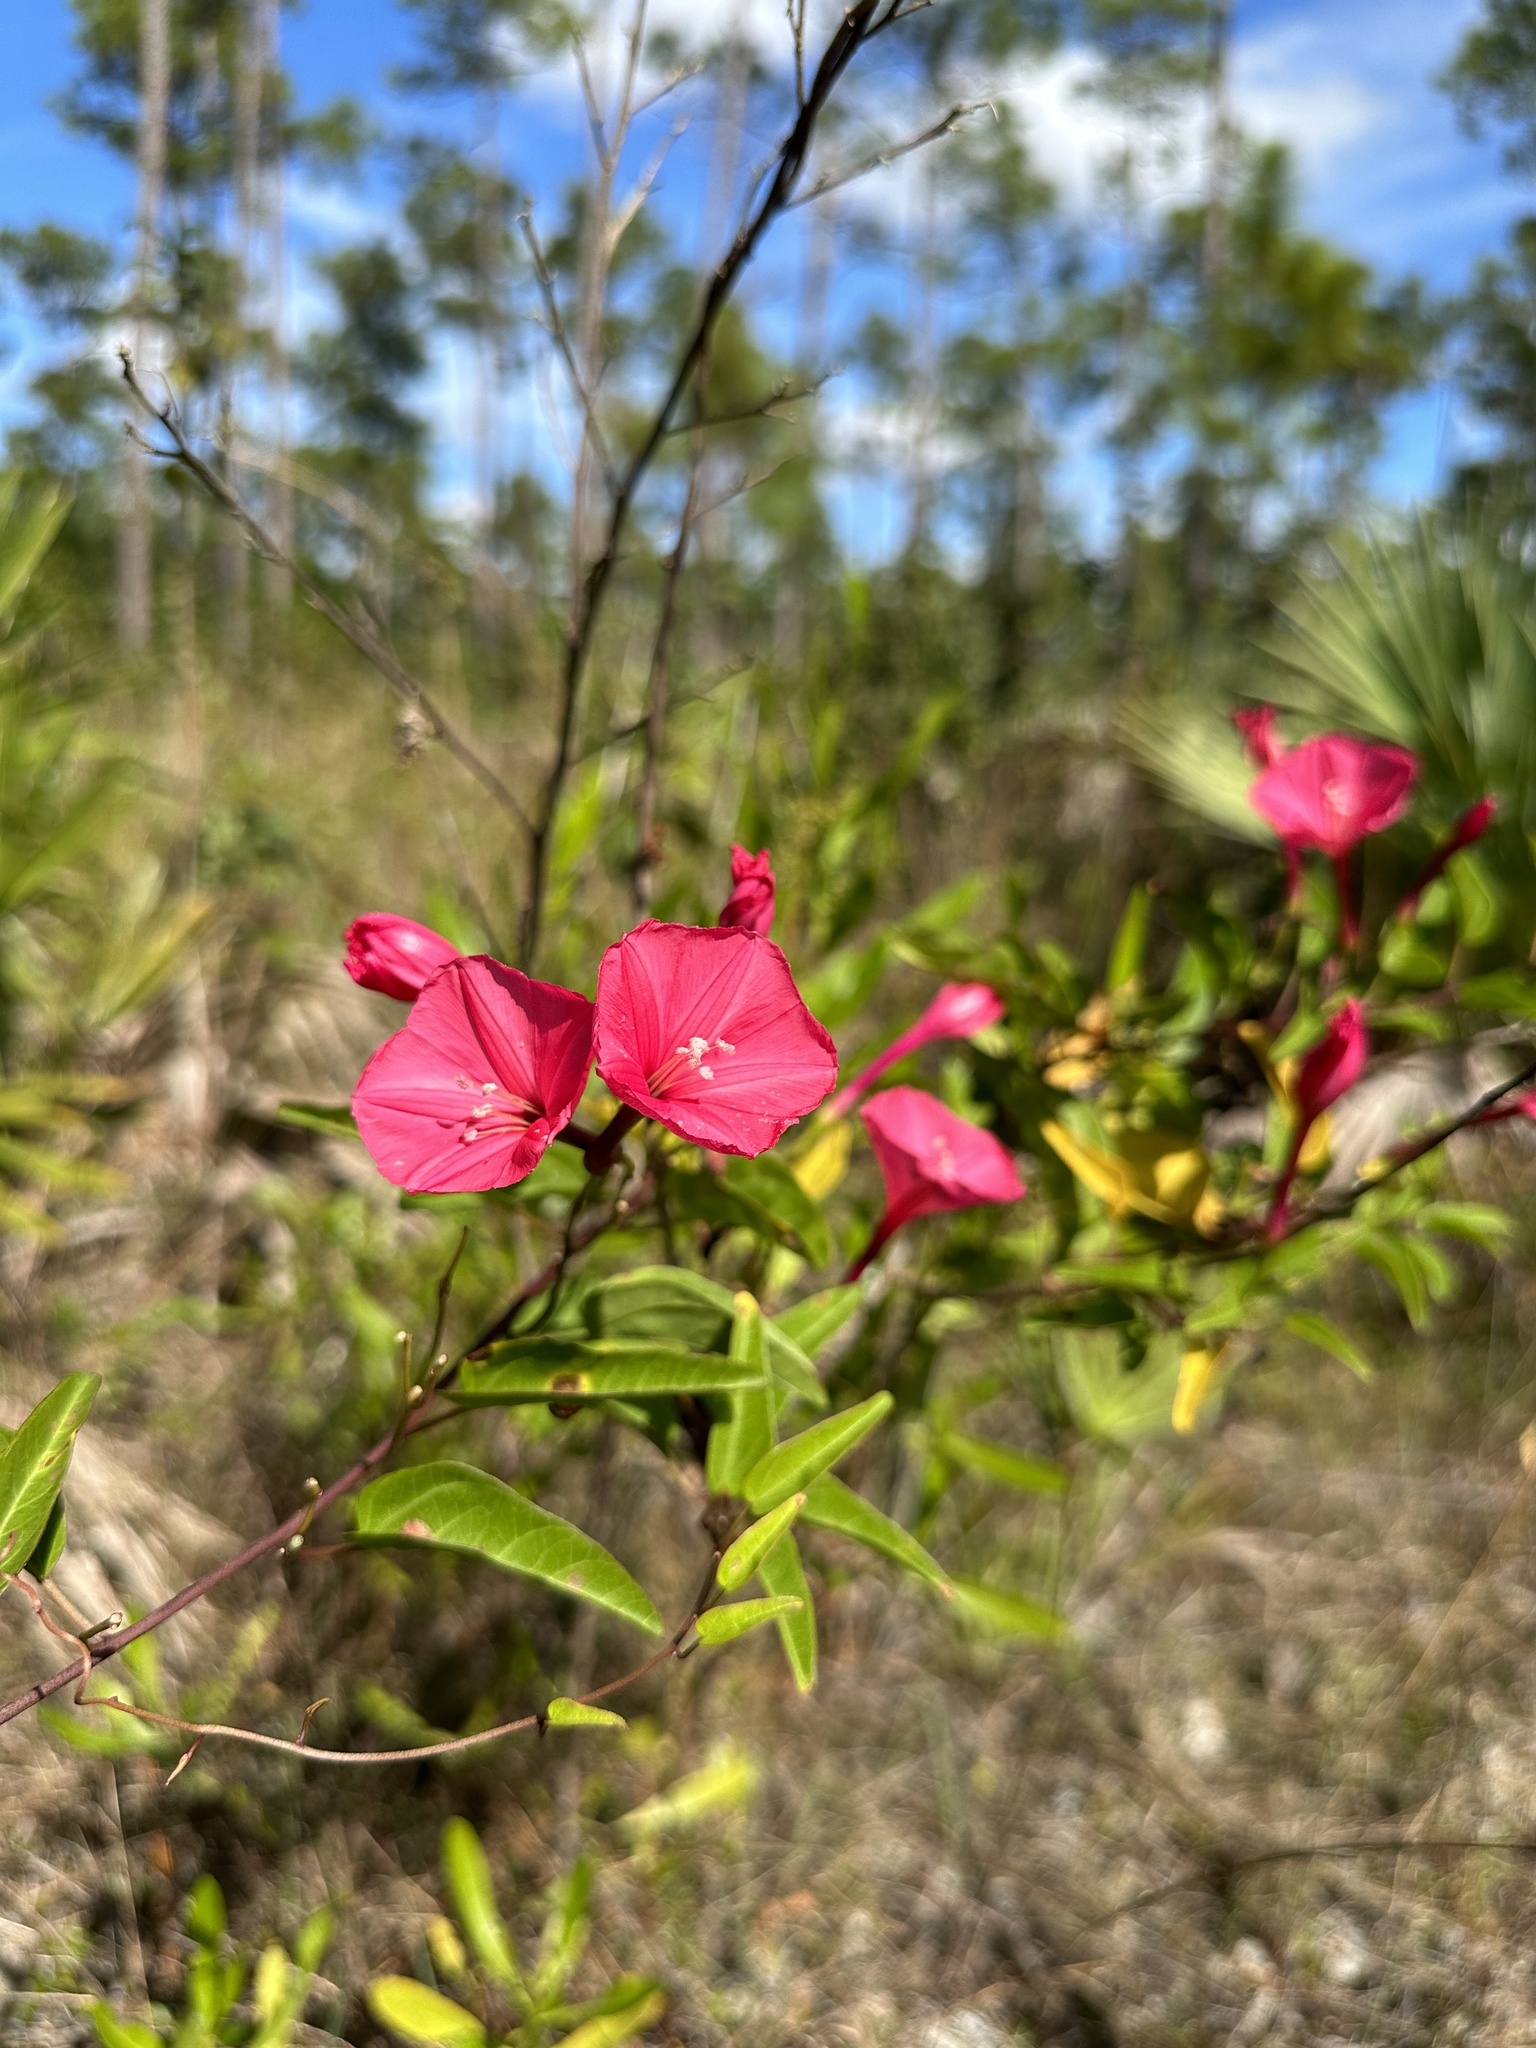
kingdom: Plantae
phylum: Tracheophyta
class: Magnoliopsida
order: Solanales
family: Convolvulaceae
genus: Ipomoea
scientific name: Ipomoea microdactyla
